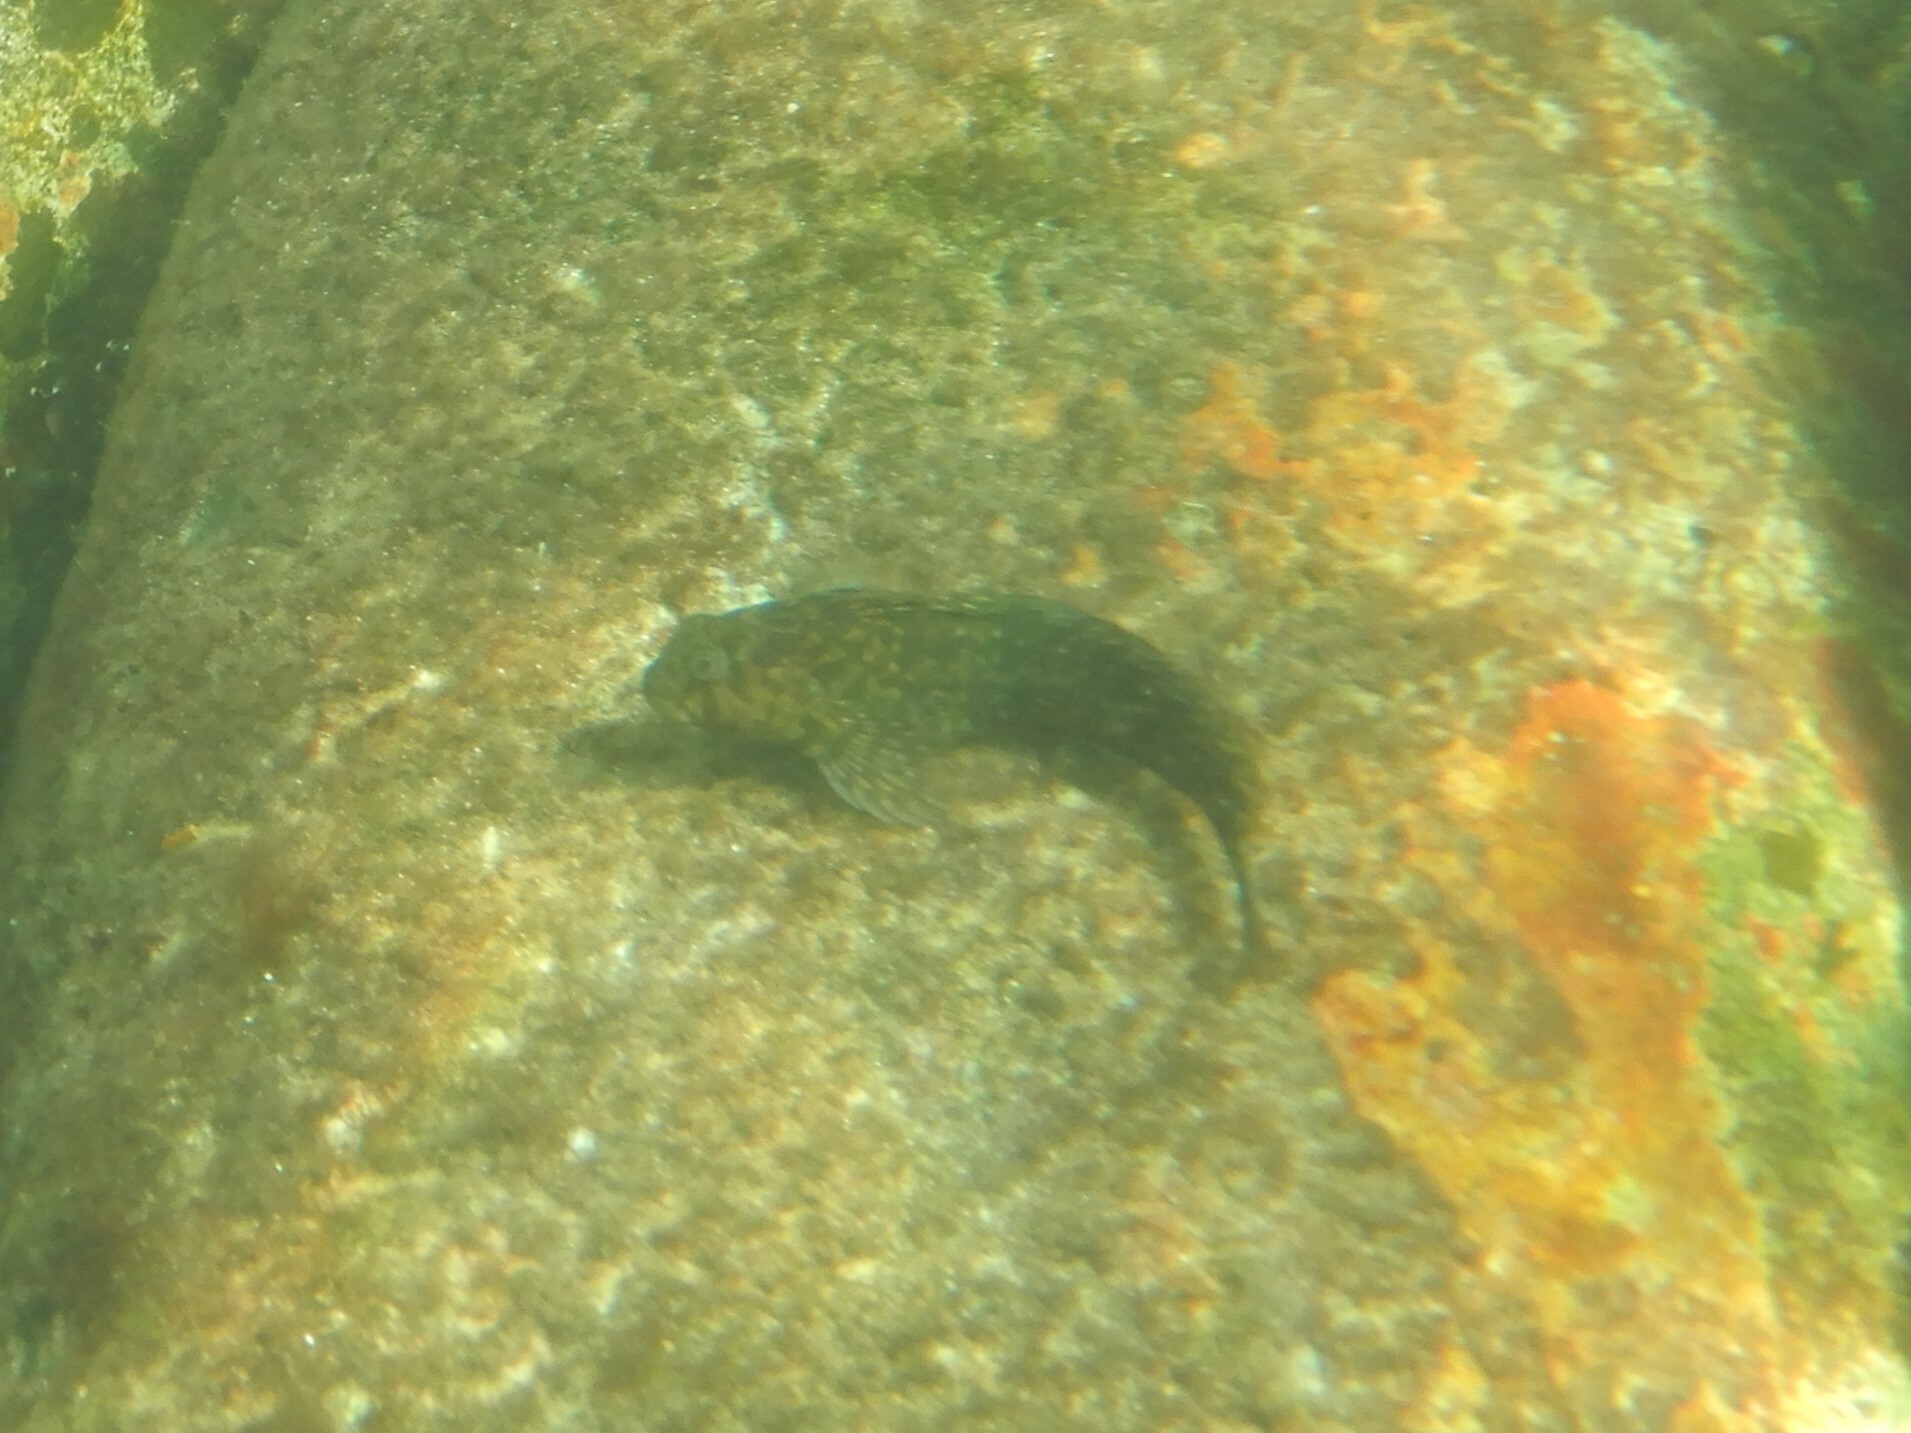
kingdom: Animalia
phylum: Chordata
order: Perciformes
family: Blenniidae
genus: Parablennius
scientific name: Parablennius sanguinolentus
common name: Black sea blenny
